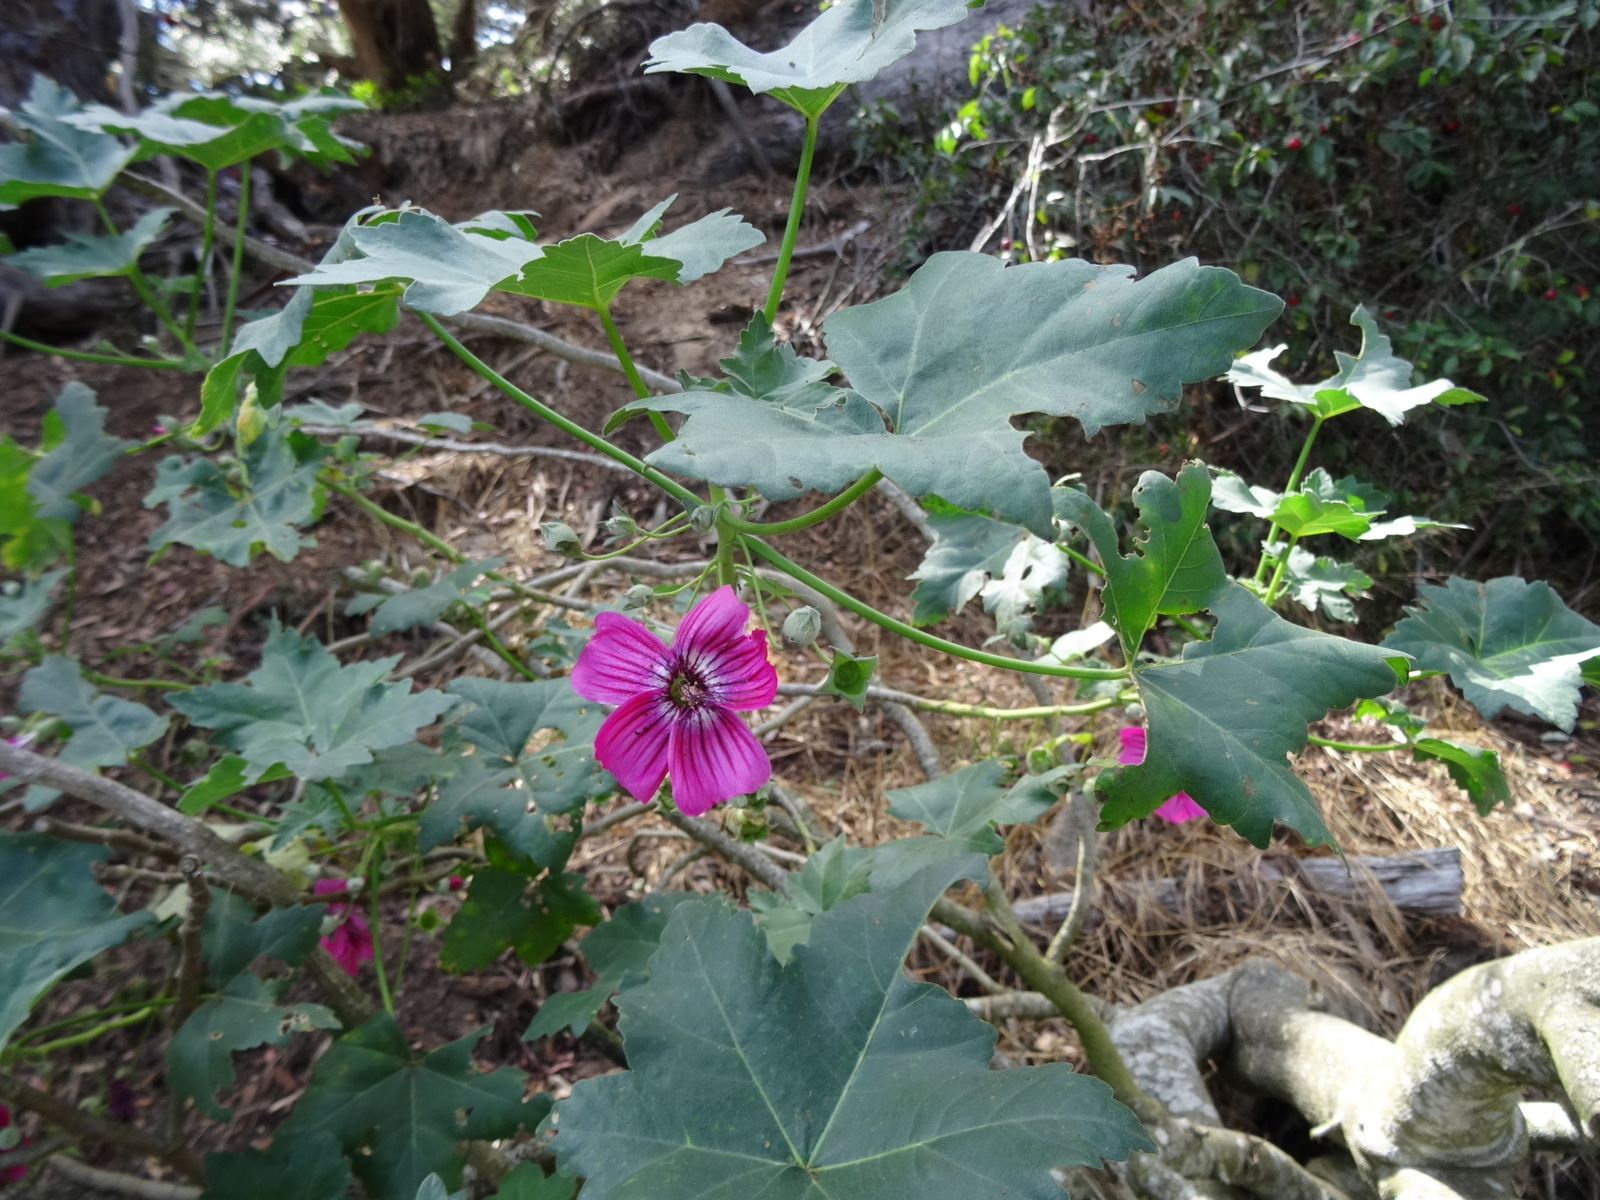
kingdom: Plantae
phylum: Tracheophyta
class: Magnoliopsida
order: Malvales
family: Malvaceae
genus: Malva
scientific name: Malva assurgentiflora
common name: Island mallow
